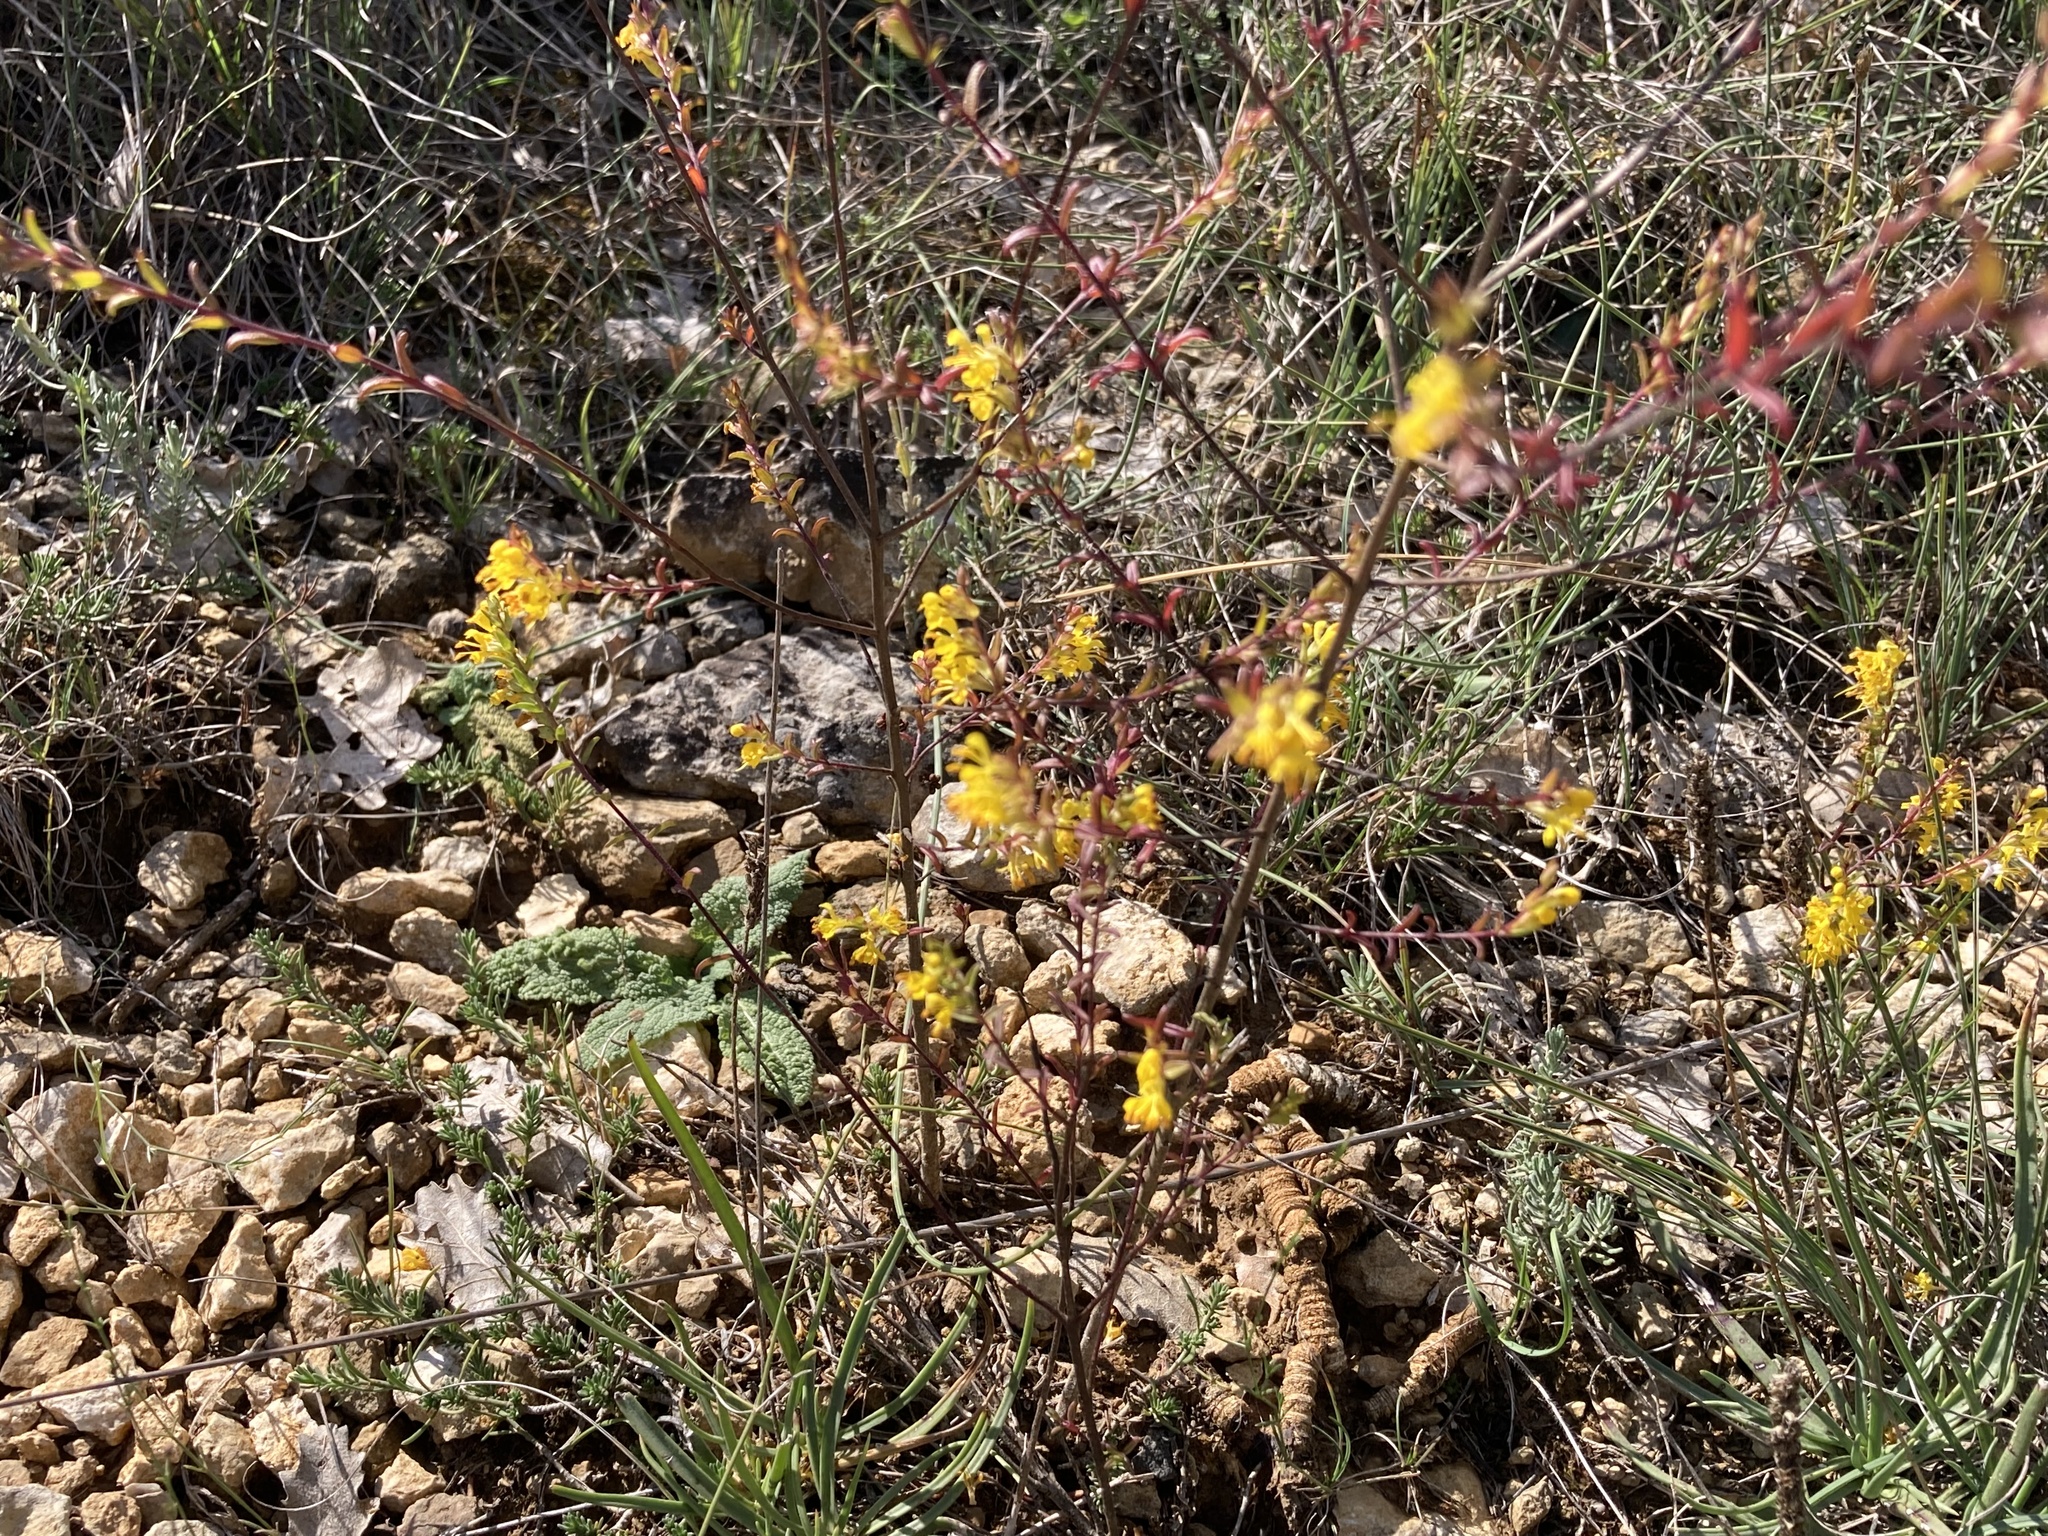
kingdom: Plantae
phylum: Tracheophyta
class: Magnoliopsida
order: Lamiales
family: Orobanchaceae
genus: Odontites
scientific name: Odontites luteus
